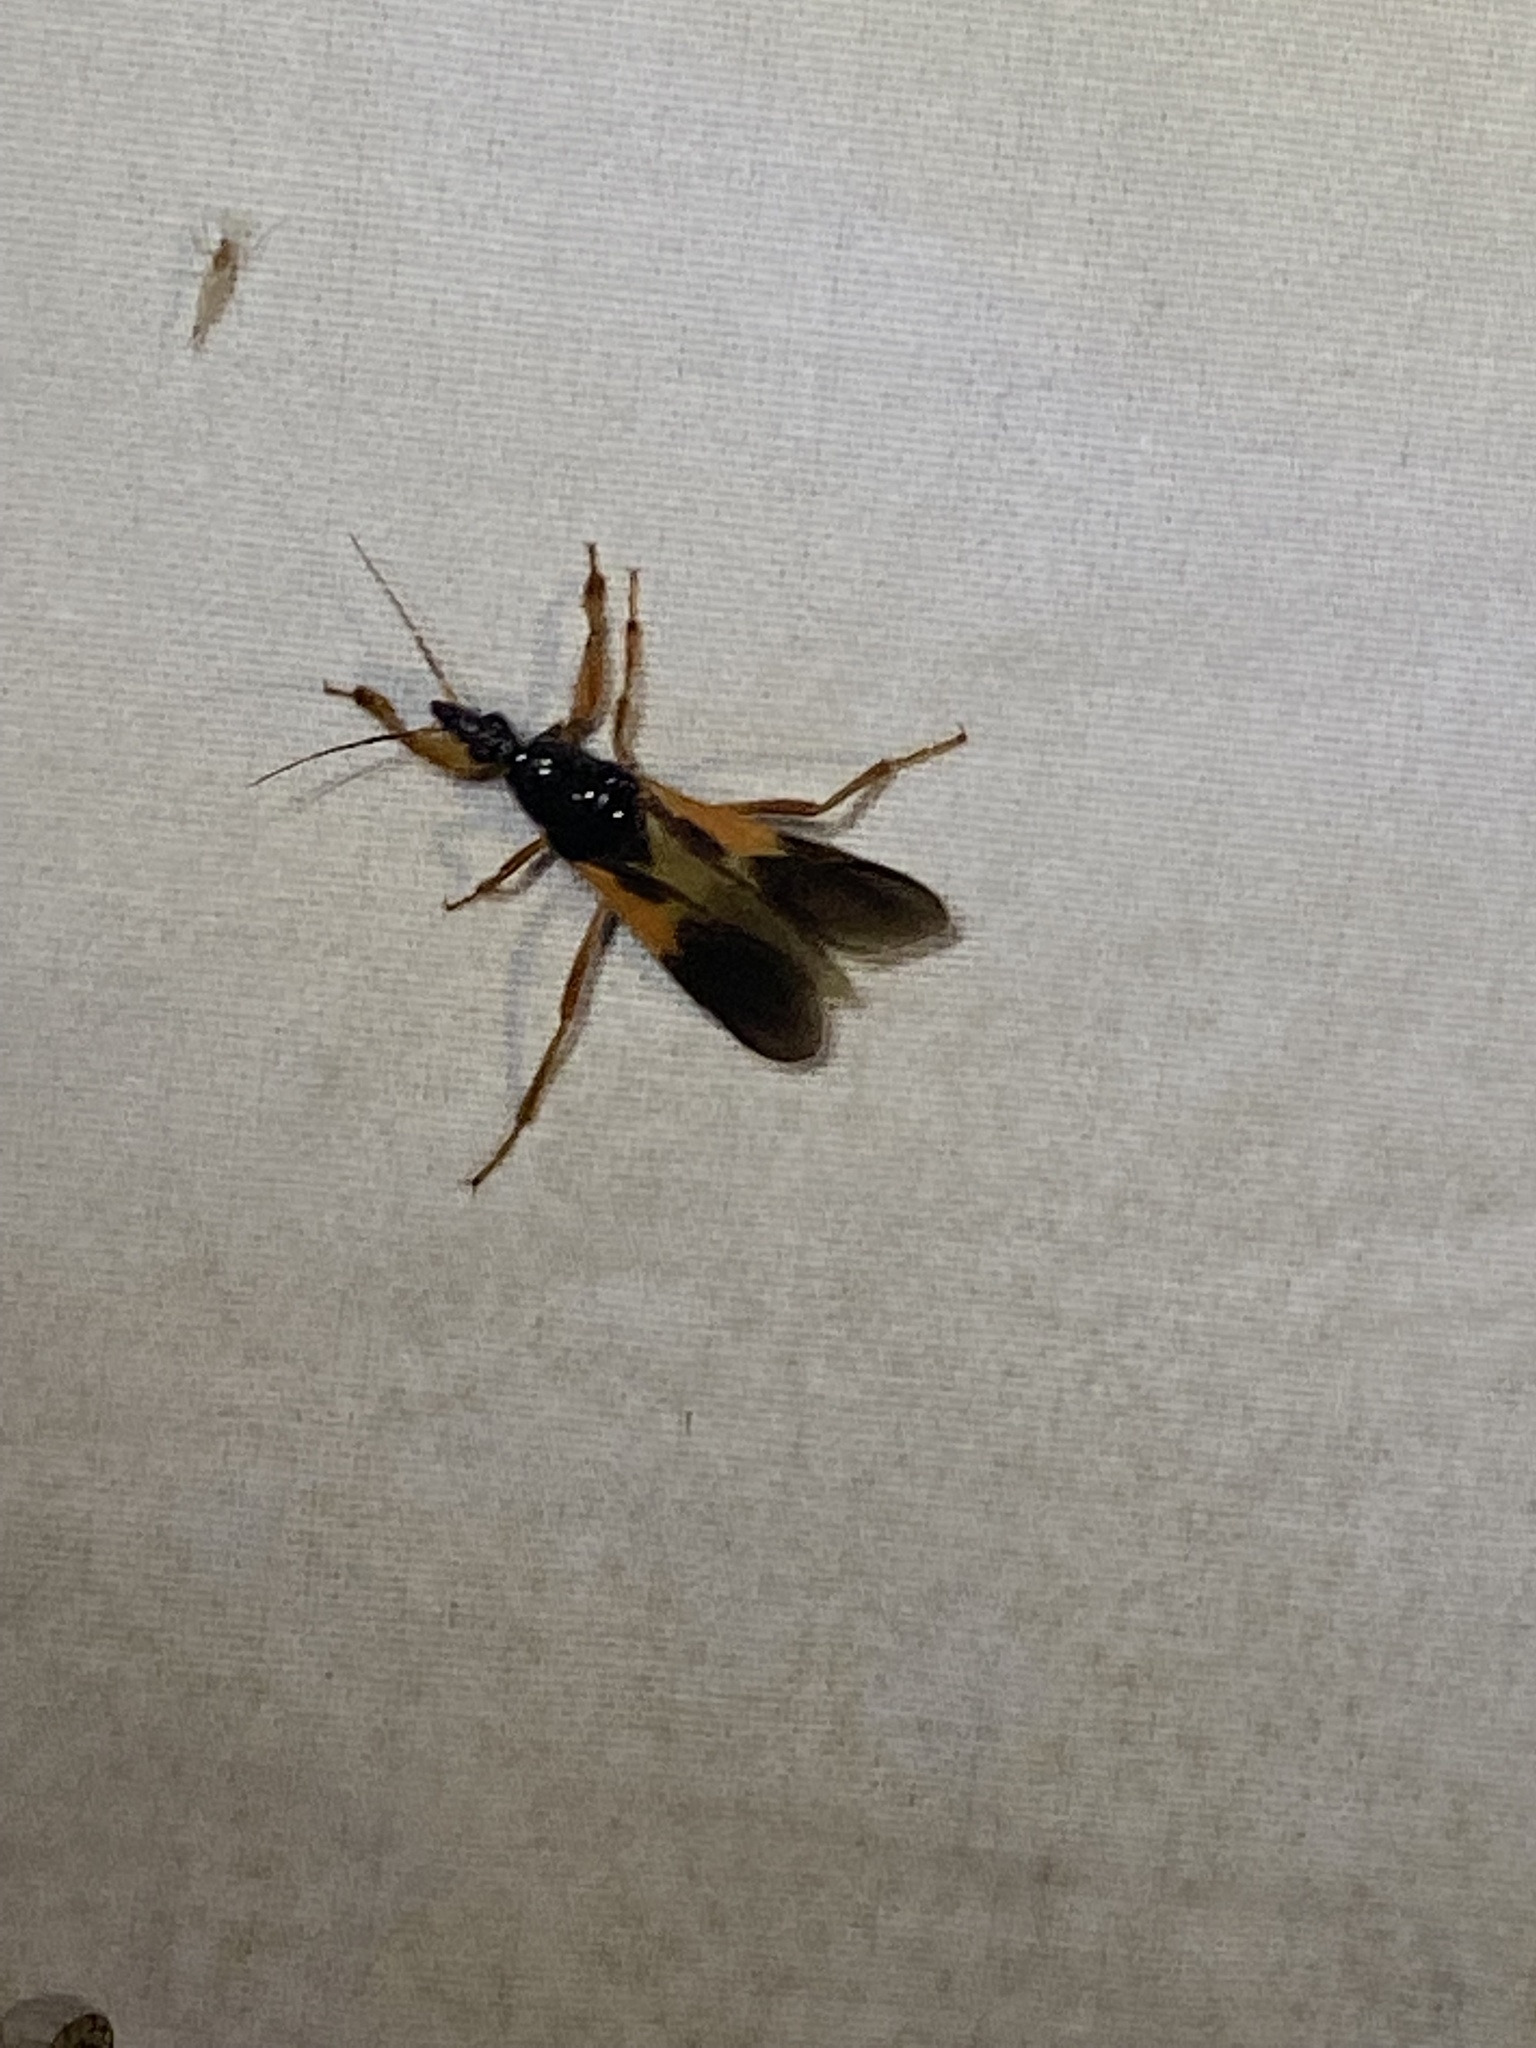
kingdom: Animalia
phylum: Arthropoda
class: Insecta
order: Hemiptera
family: Reduviidae
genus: Sirthenea
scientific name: Sirthenea stria
